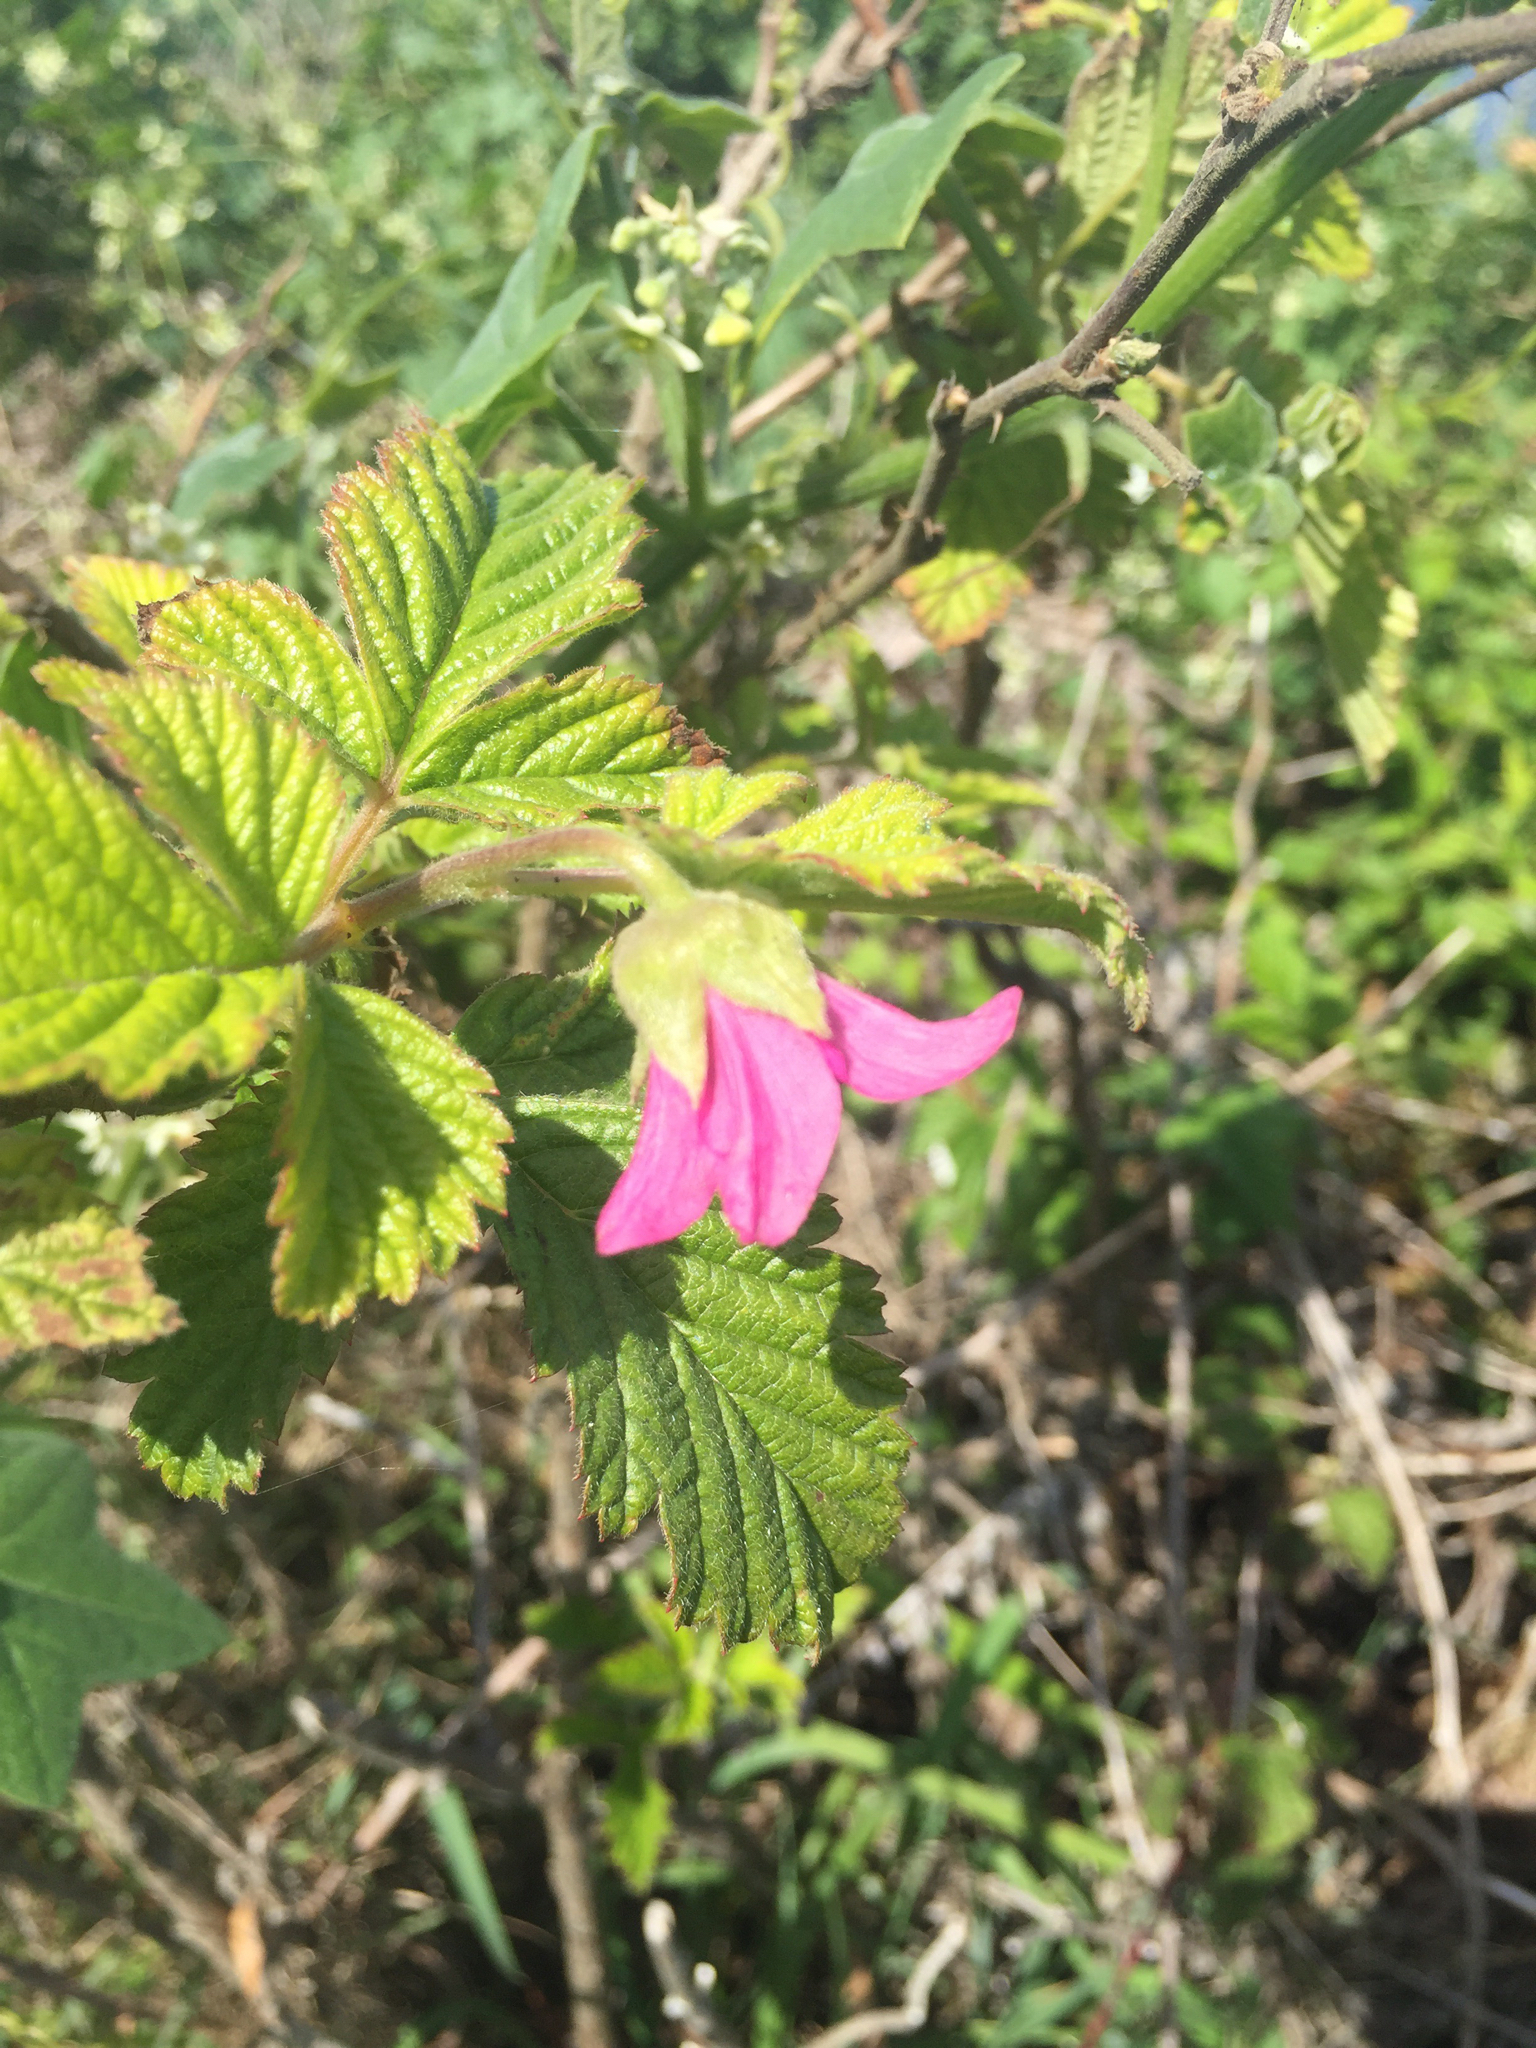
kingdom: Plantae
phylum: Tracheophyta
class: Magnoliopsida
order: Rosales
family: Rosaceae
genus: Rubus
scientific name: Rubus spectabilis
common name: Salmonberry
